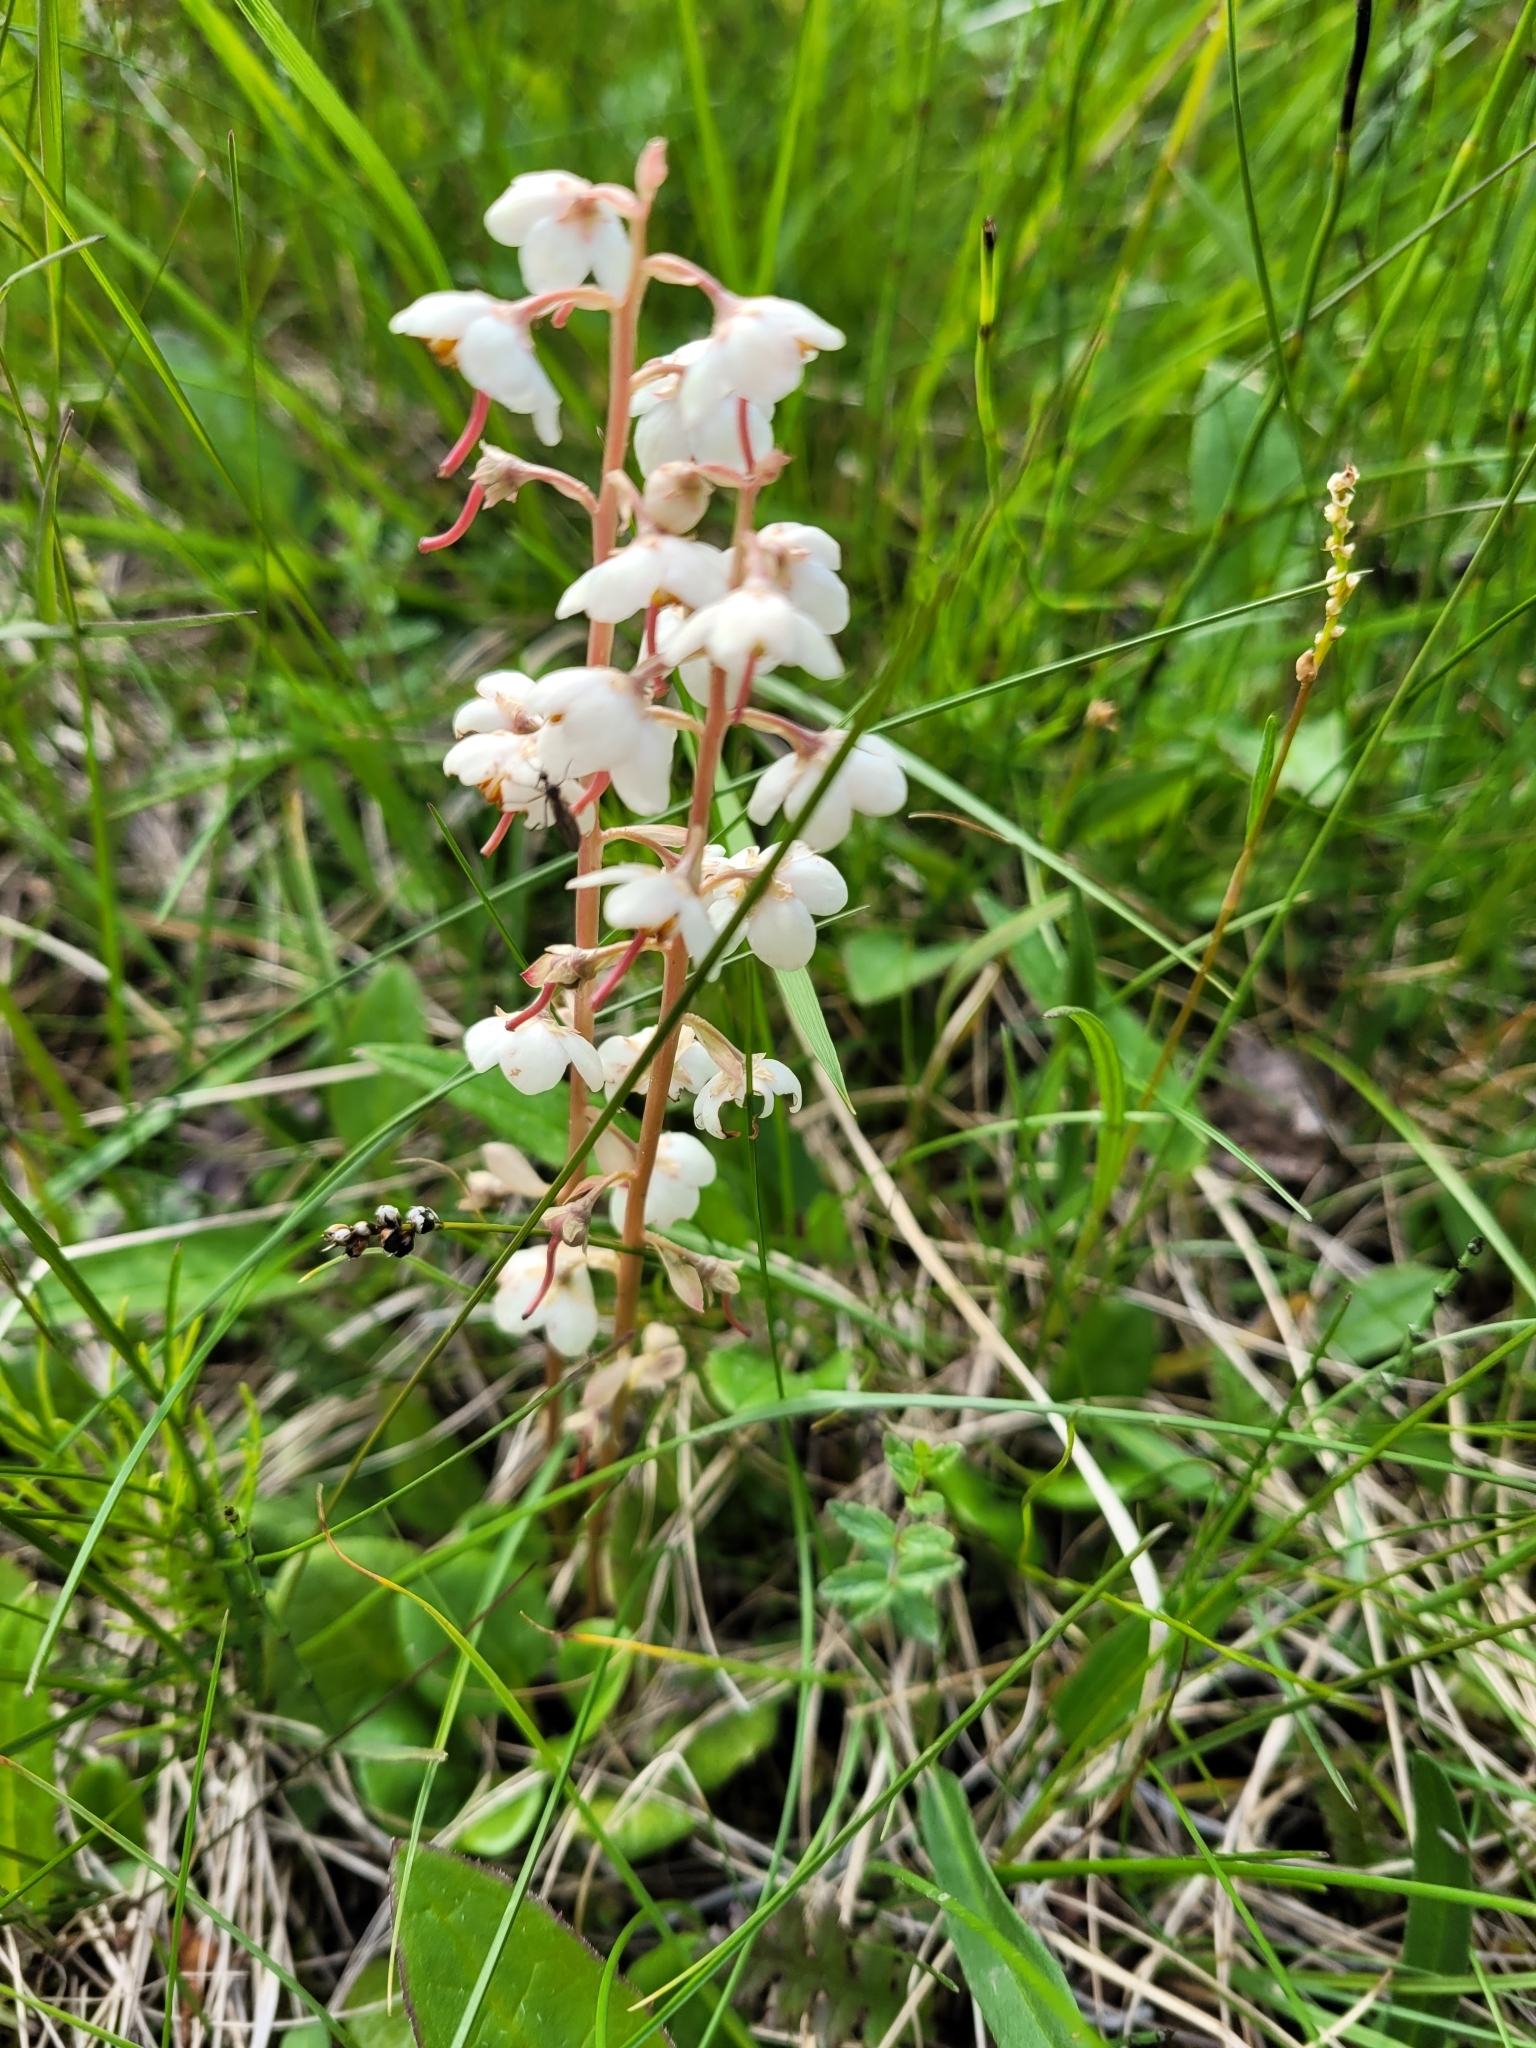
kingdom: Plantae
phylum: Tracheophyta
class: Magnoliopsida
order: Ericales
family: Ericaceae
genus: Pyrola
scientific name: Pyrola rotundifolia
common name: Round-leaved wintergreen
